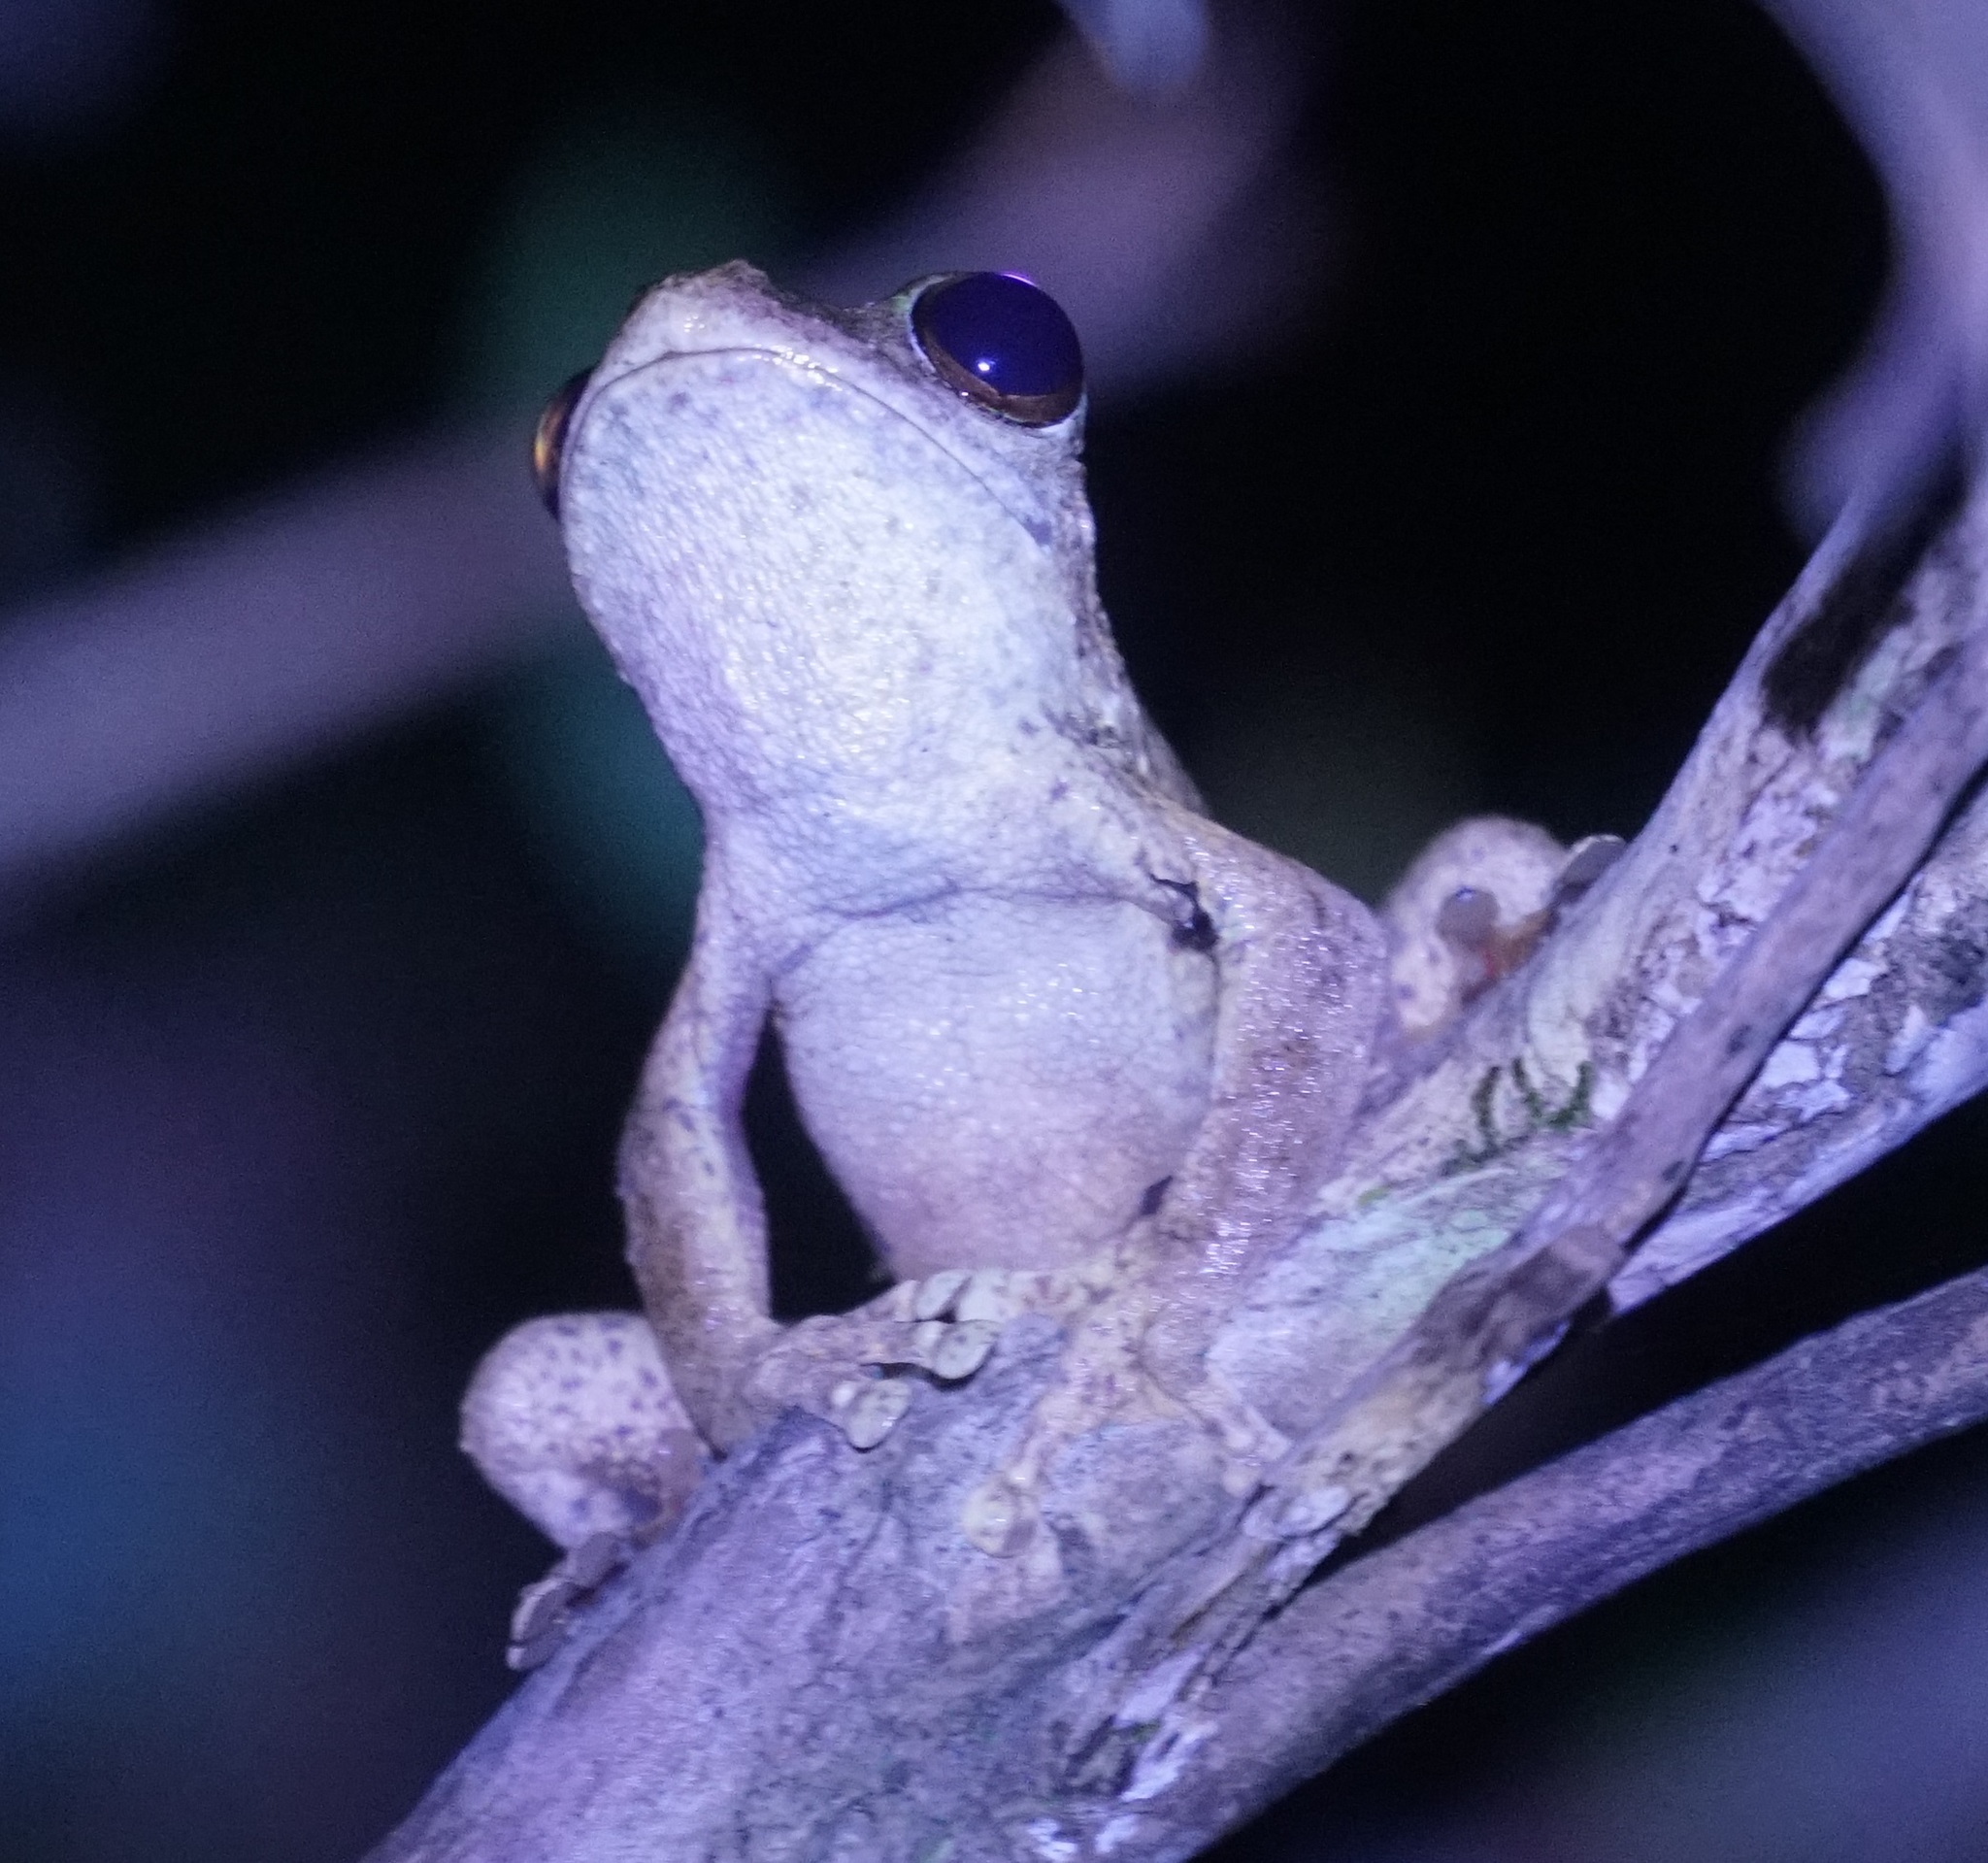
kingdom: Animalia
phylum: Chordata
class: Amphibia
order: Anura
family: Hylidae
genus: Ranoidea
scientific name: Ranoidea
